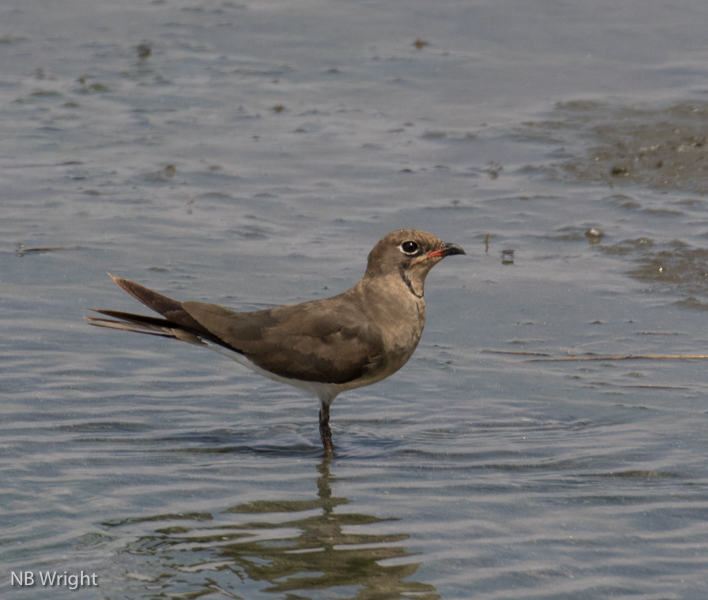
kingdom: Animalia
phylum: Chordata
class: Aves
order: Charadriiformes
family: Glareolidae
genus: Glareola
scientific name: Glareola pratincola
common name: Collared pratincole
